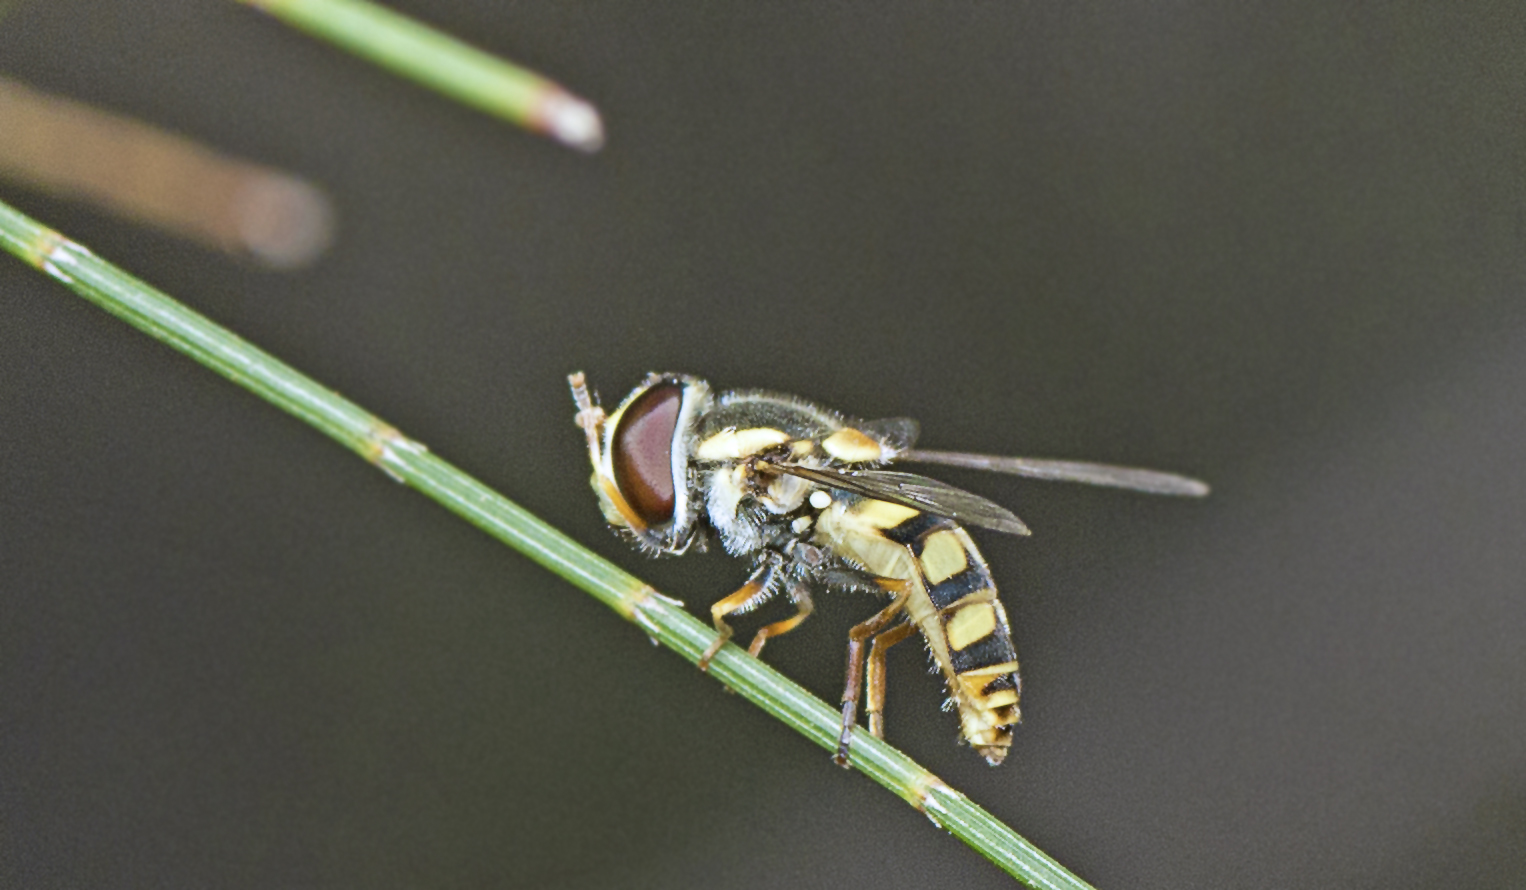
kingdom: Animalia
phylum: Arthropoda
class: Insecta
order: Diptera
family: Syrphidae
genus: Simosyrphus
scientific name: Simosyrphus grandicornis
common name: Hoverfly
